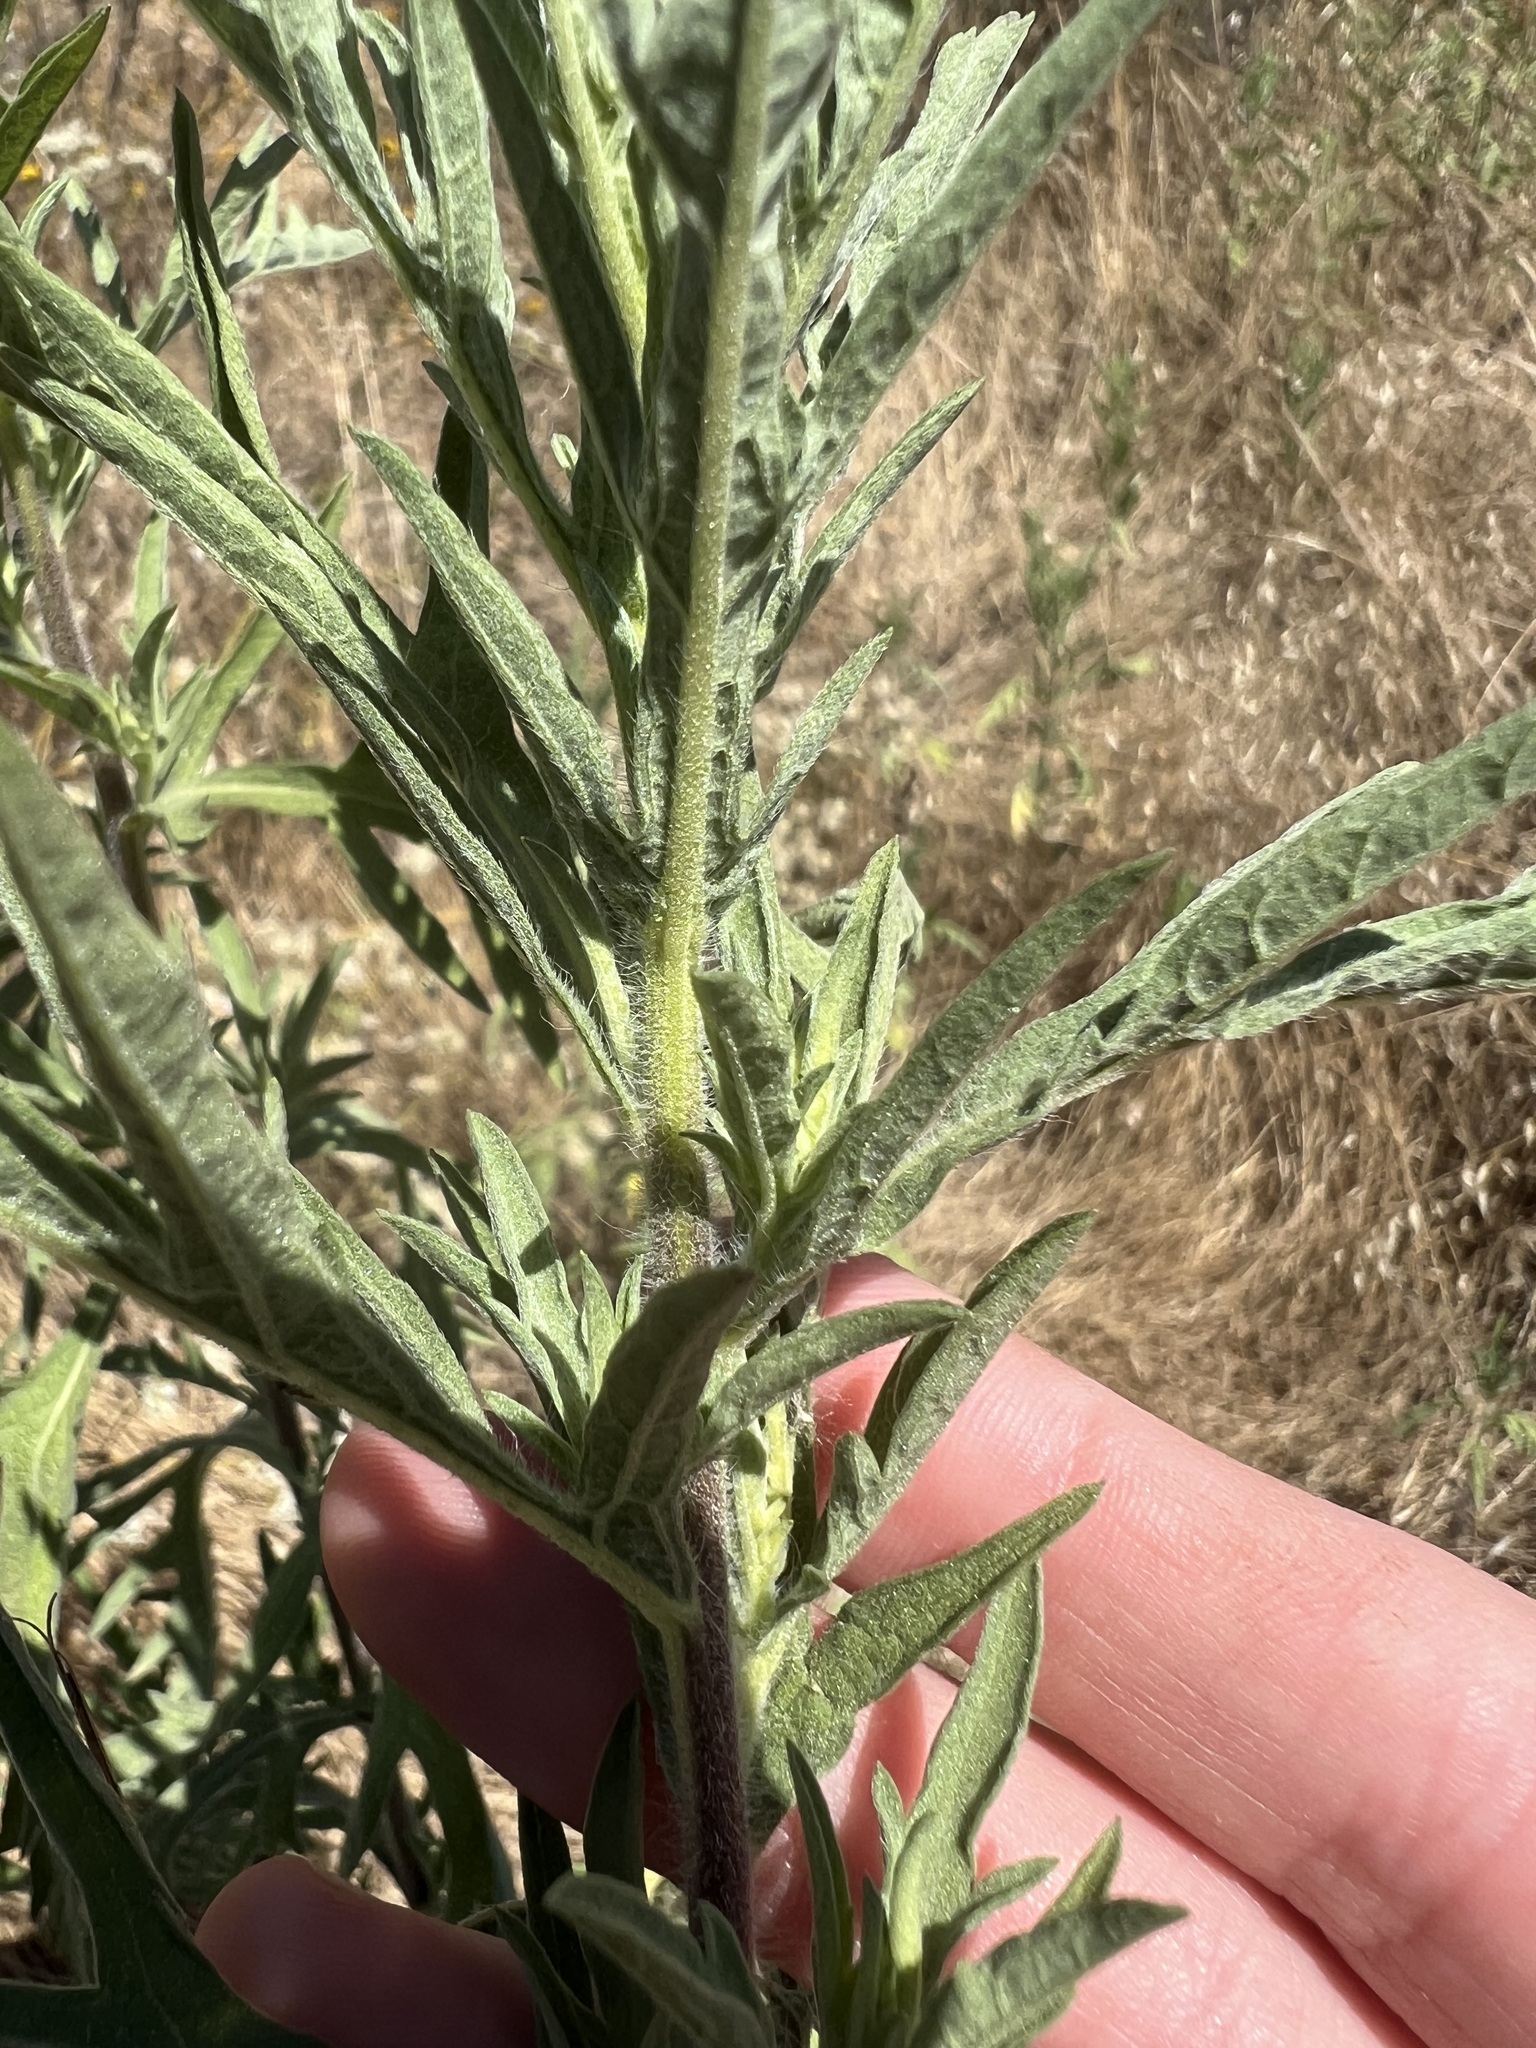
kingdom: Plantae
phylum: Tracheophyta
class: Magnoliopsida
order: Asterales
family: Asteraceae
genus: Ambrosia
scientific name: Ambrosia psilostachya
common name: Perennial ragweed
